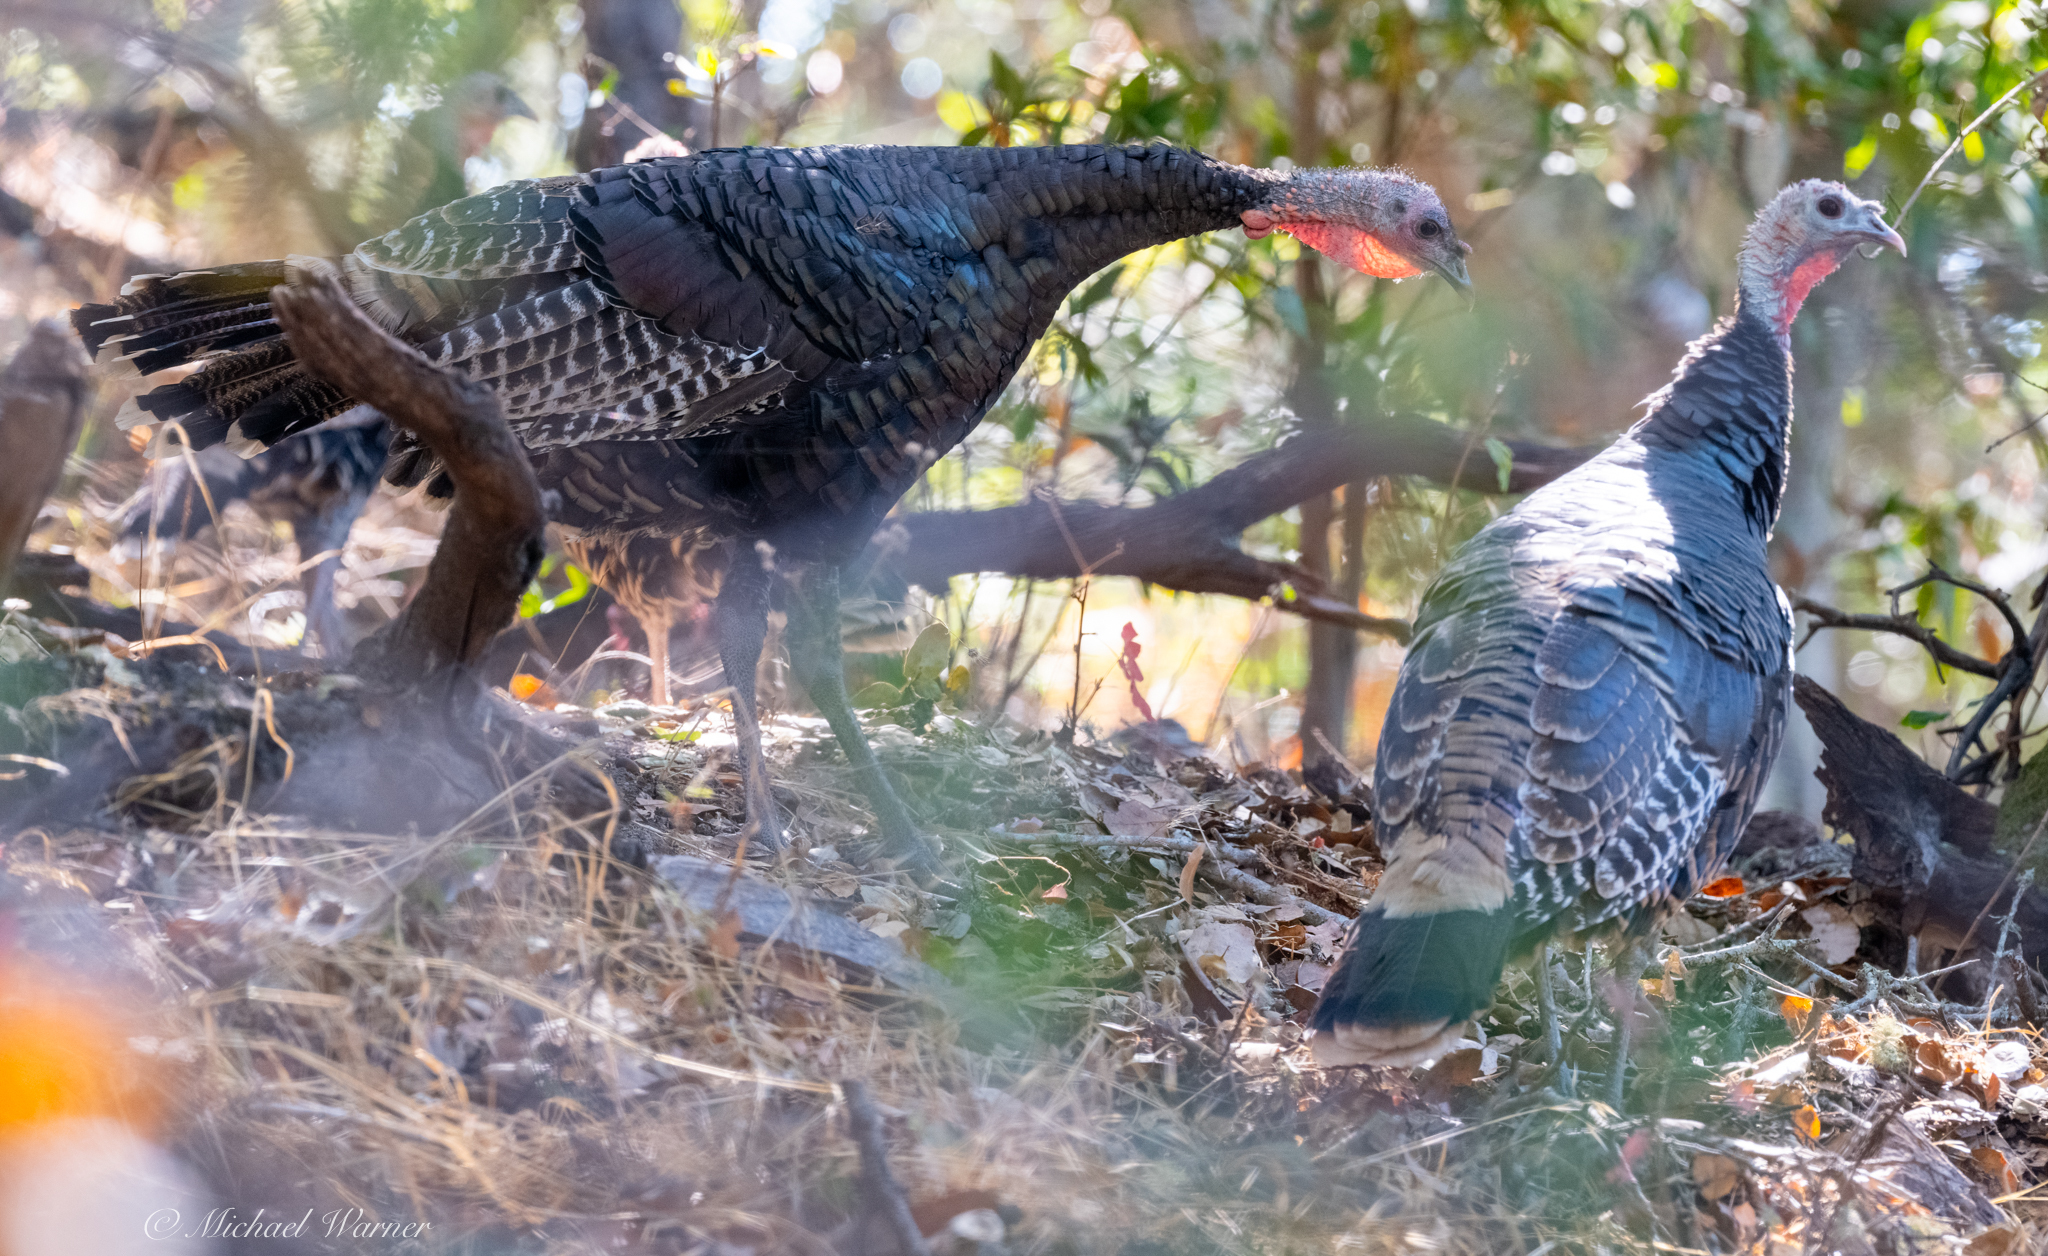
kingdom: Animalia
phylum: Chordata
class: Aves
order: Galliformes
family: Phasianidae
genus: Meleagris
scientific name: Meleagris gallopavo
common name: Wild turkey
